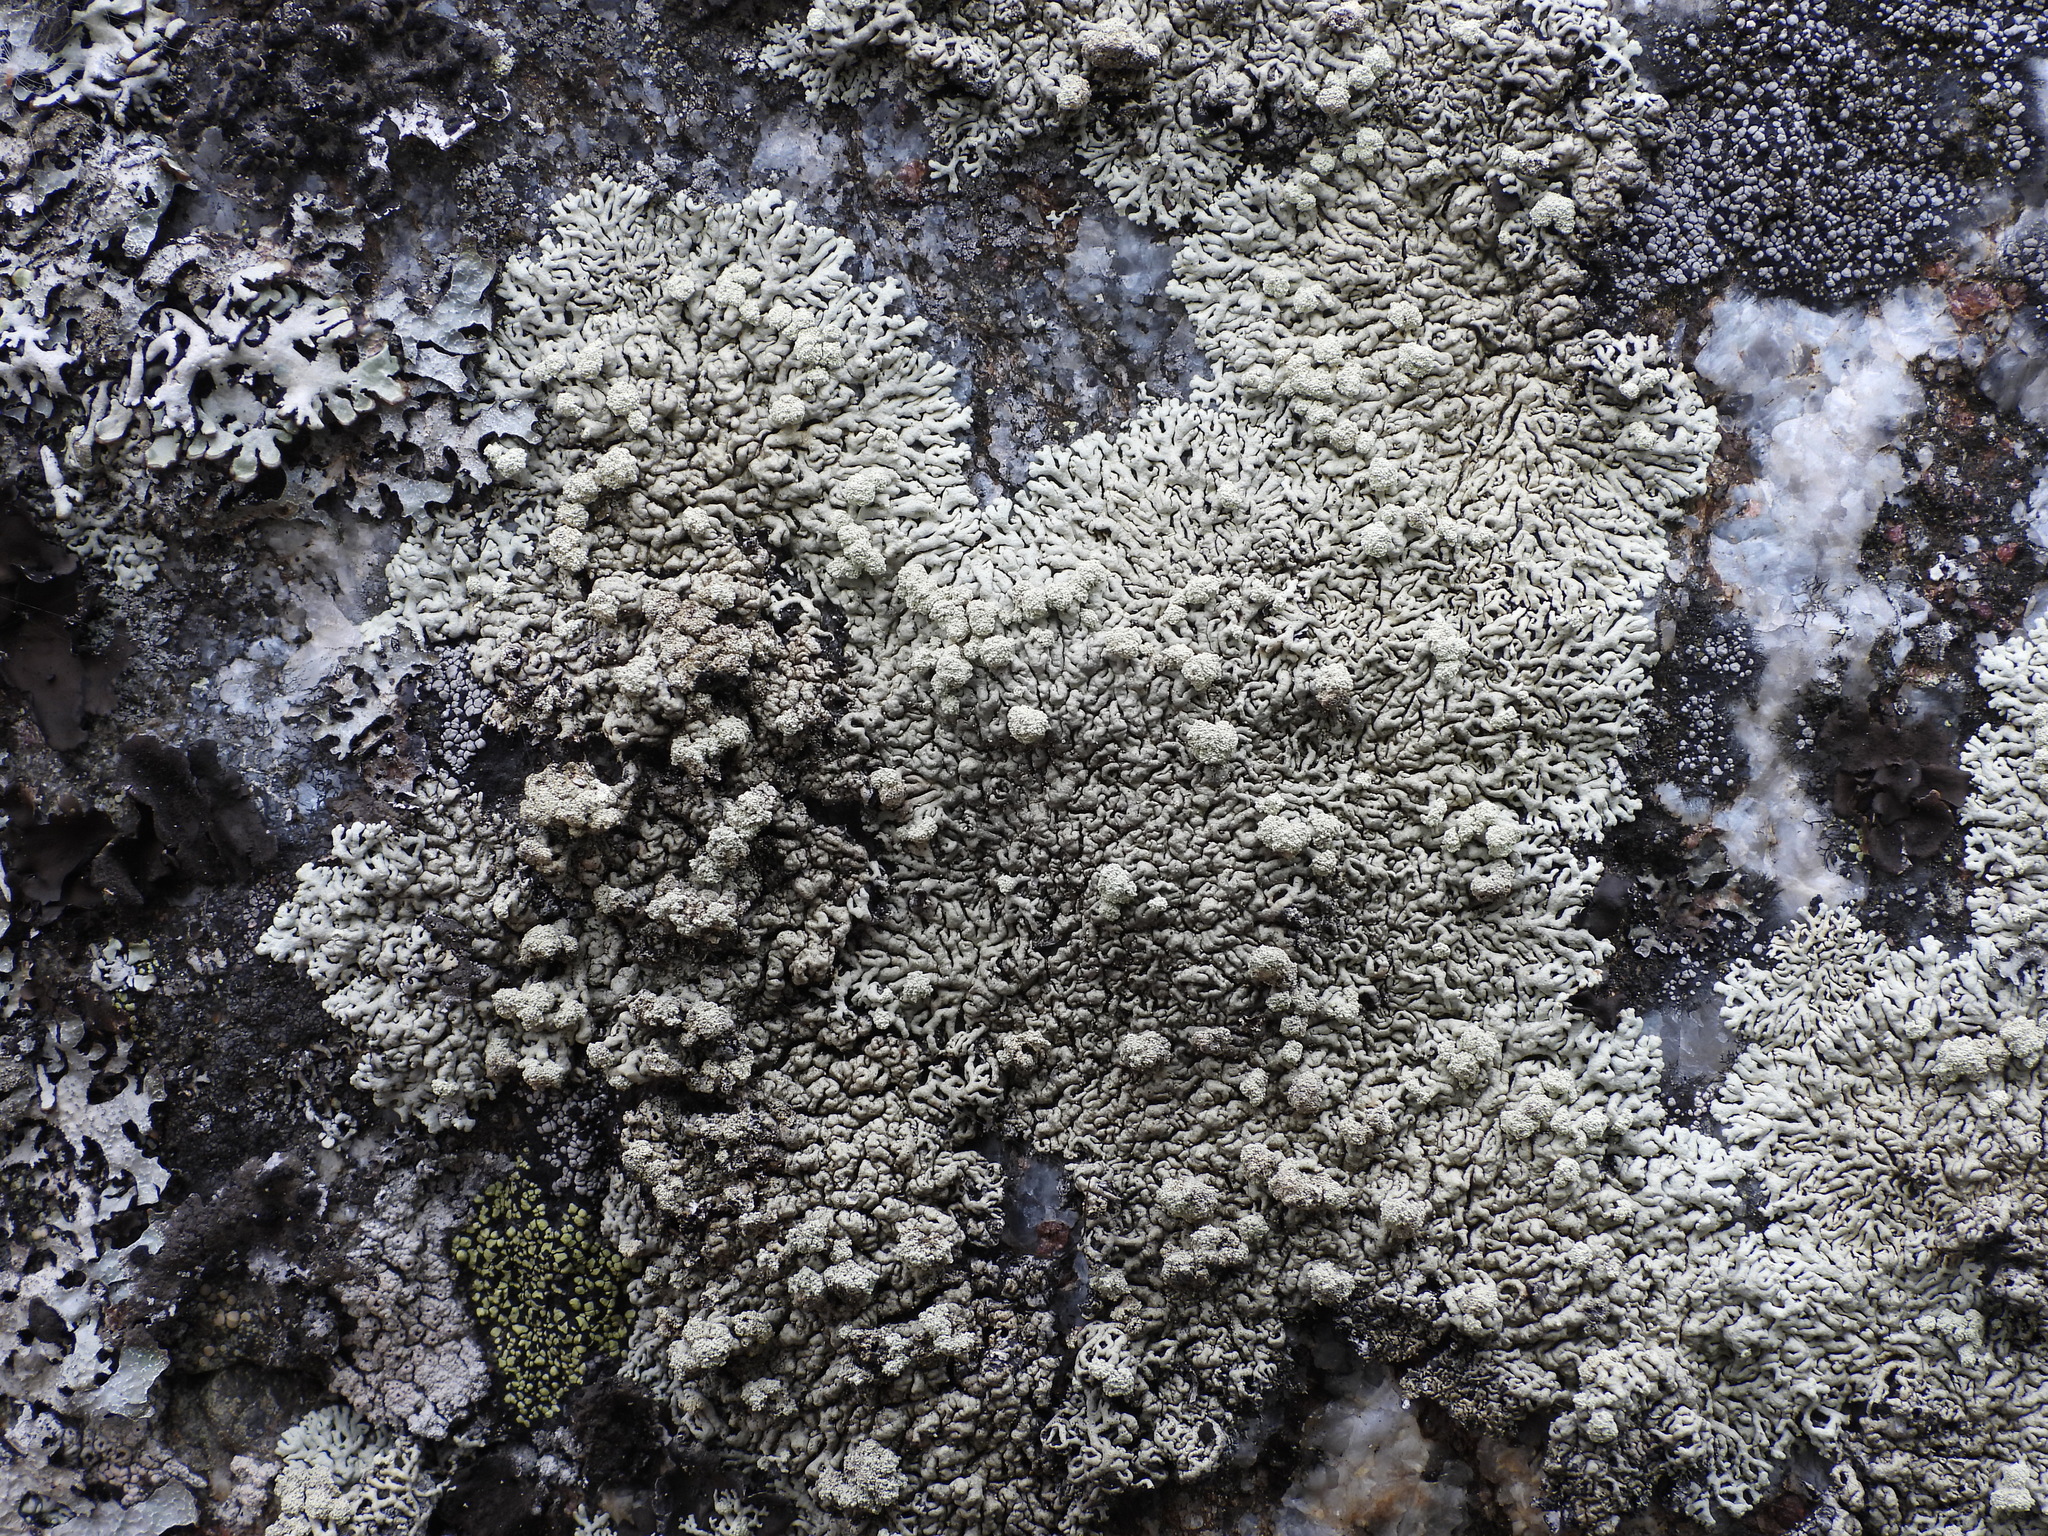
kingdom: Fungi
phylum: Ascomycota
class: Lecanoromycetes
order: Lecanorales
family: Parmeliaceae
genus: Arctoparmelia
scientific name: Arctoparmelia incurva
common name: Bent ring lichen
